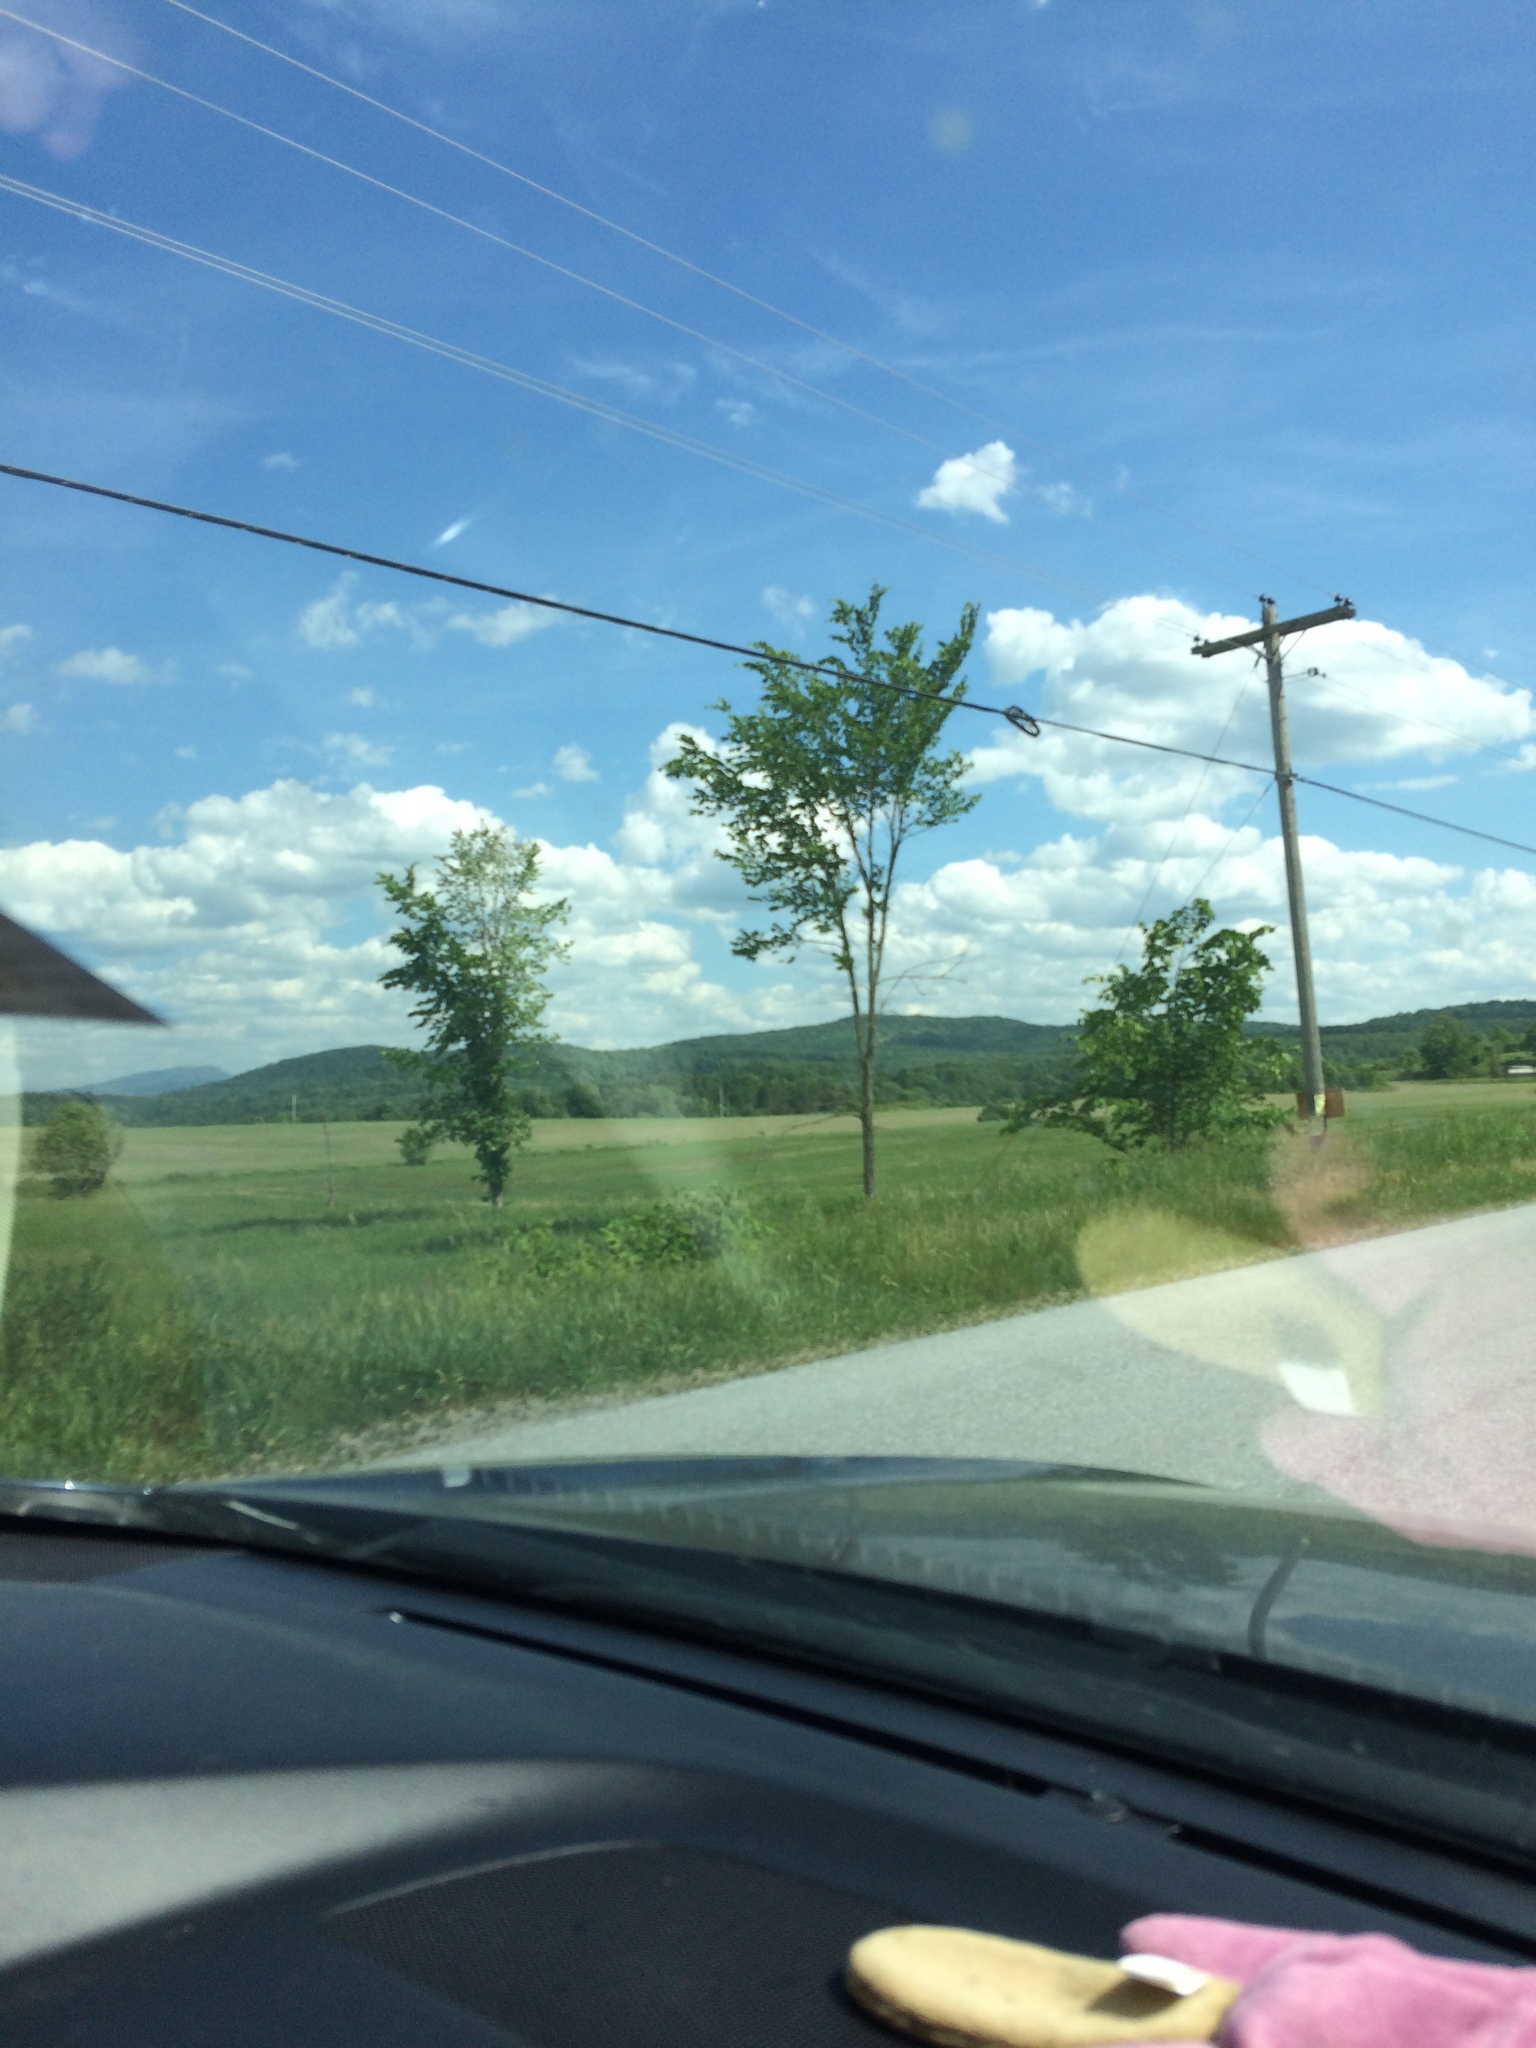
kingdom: Plantae
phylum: Tracheophyta
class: Magnoliopsida
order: Rosales
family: Ulmaceae
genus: Ulmus
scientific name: Ulmus americana
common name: American elm
